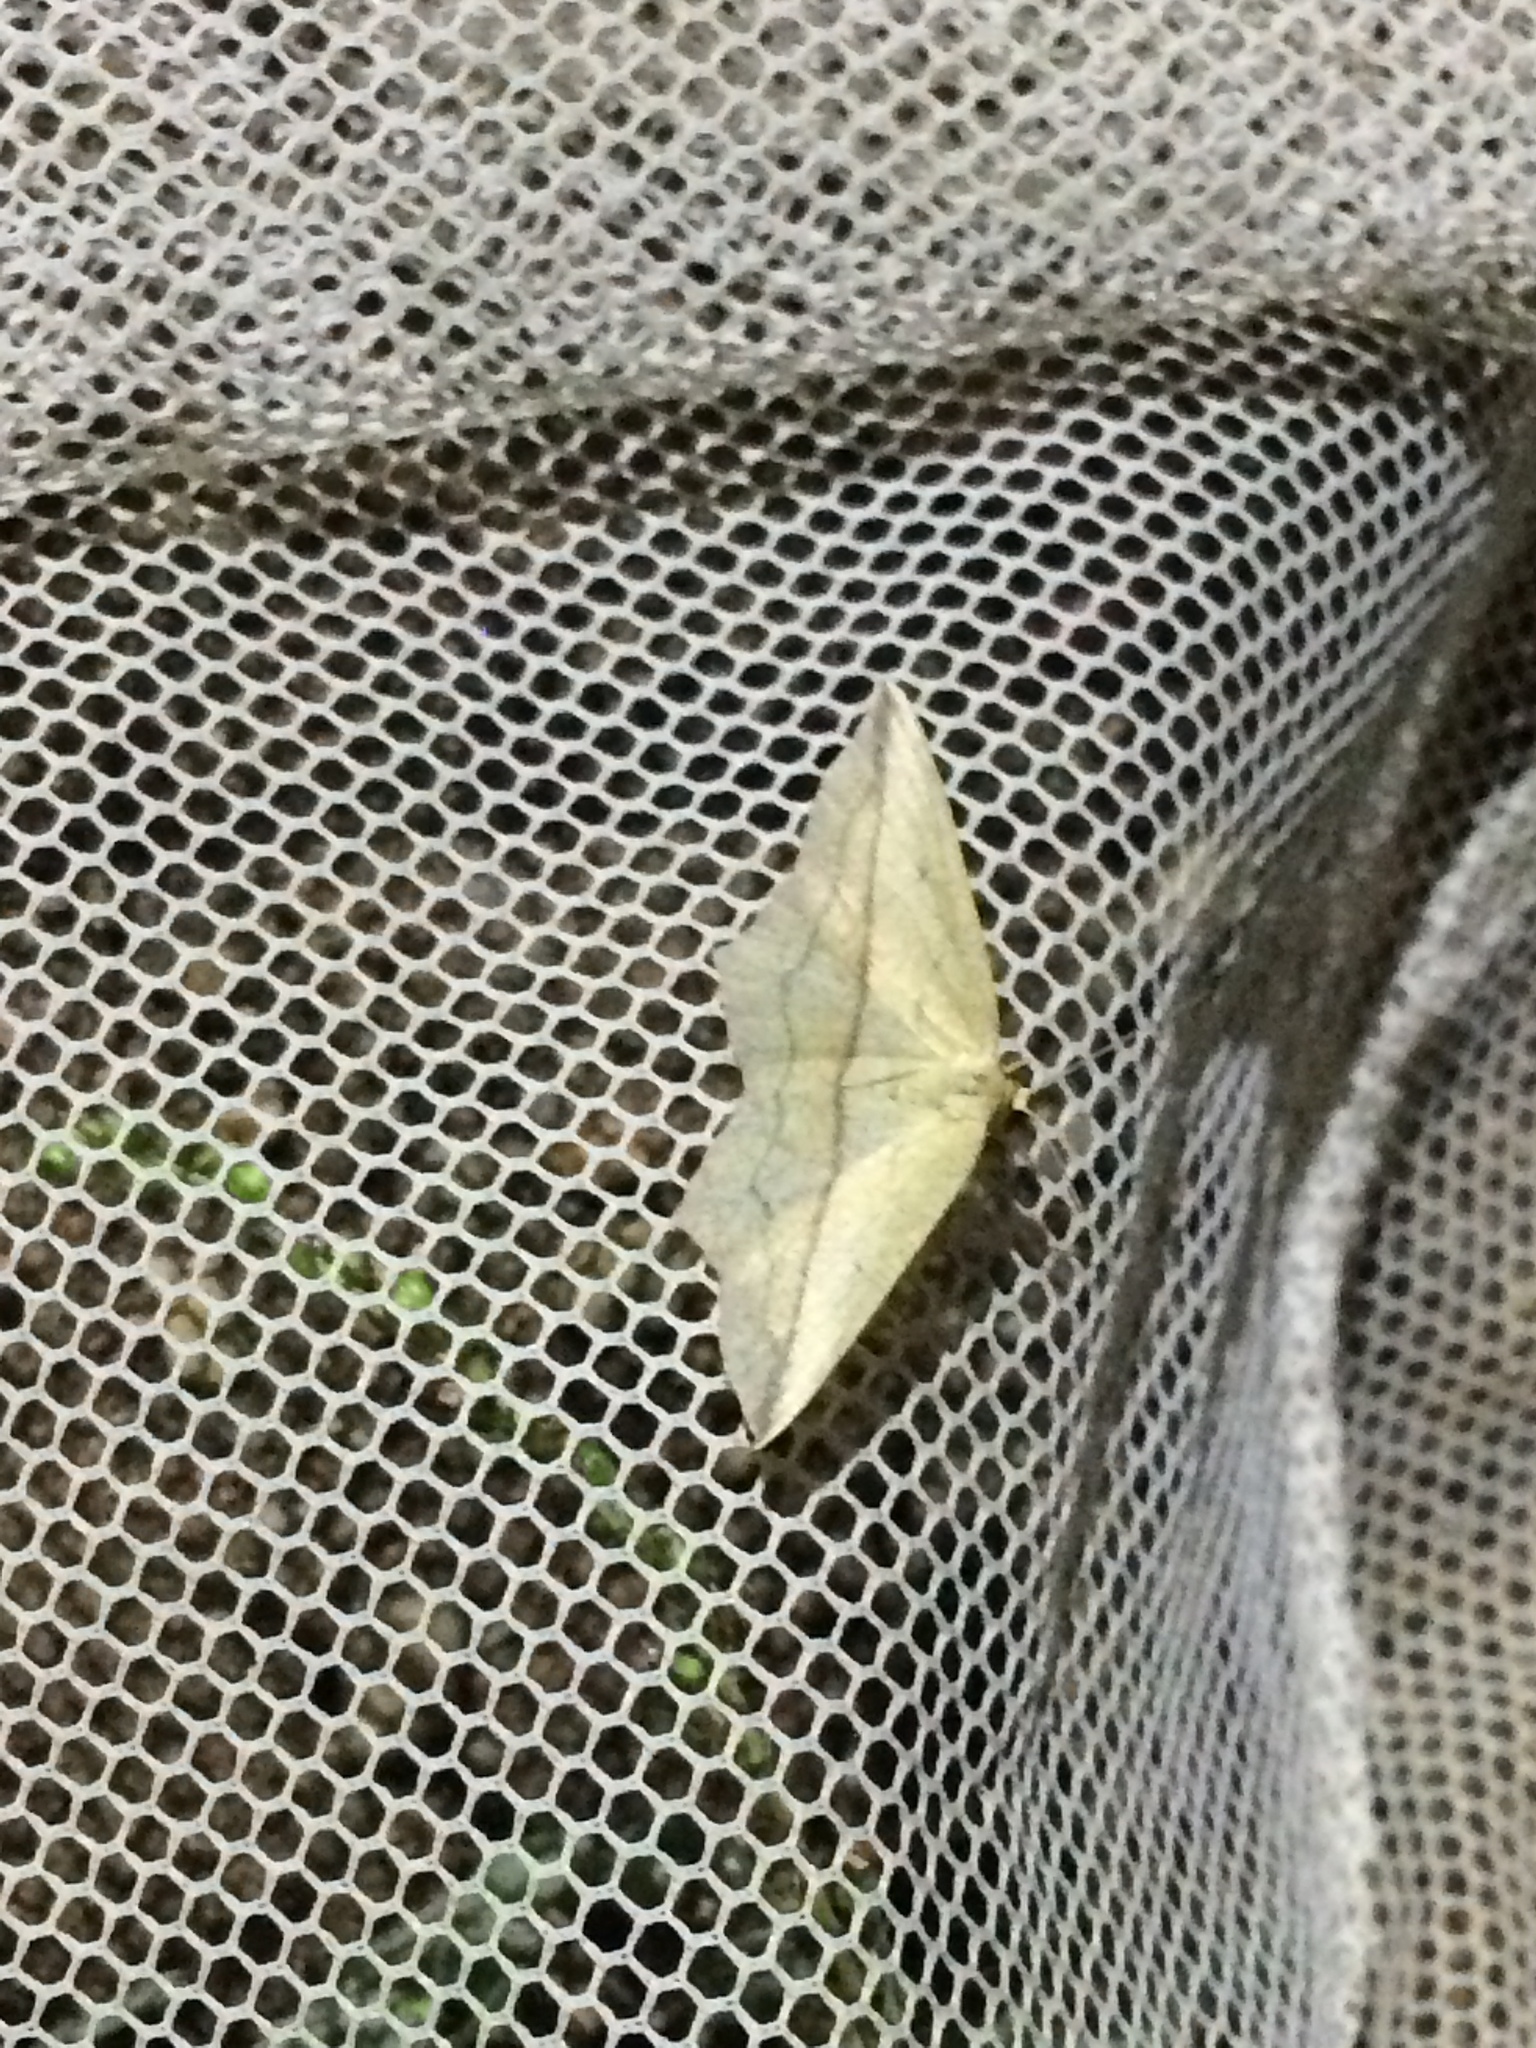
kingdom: Animalia
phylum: Arthropoda
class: Insecta
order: Lepidoptera
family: Geometridae
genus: Timandra
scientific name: Timandra comae
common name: Blood-vein
